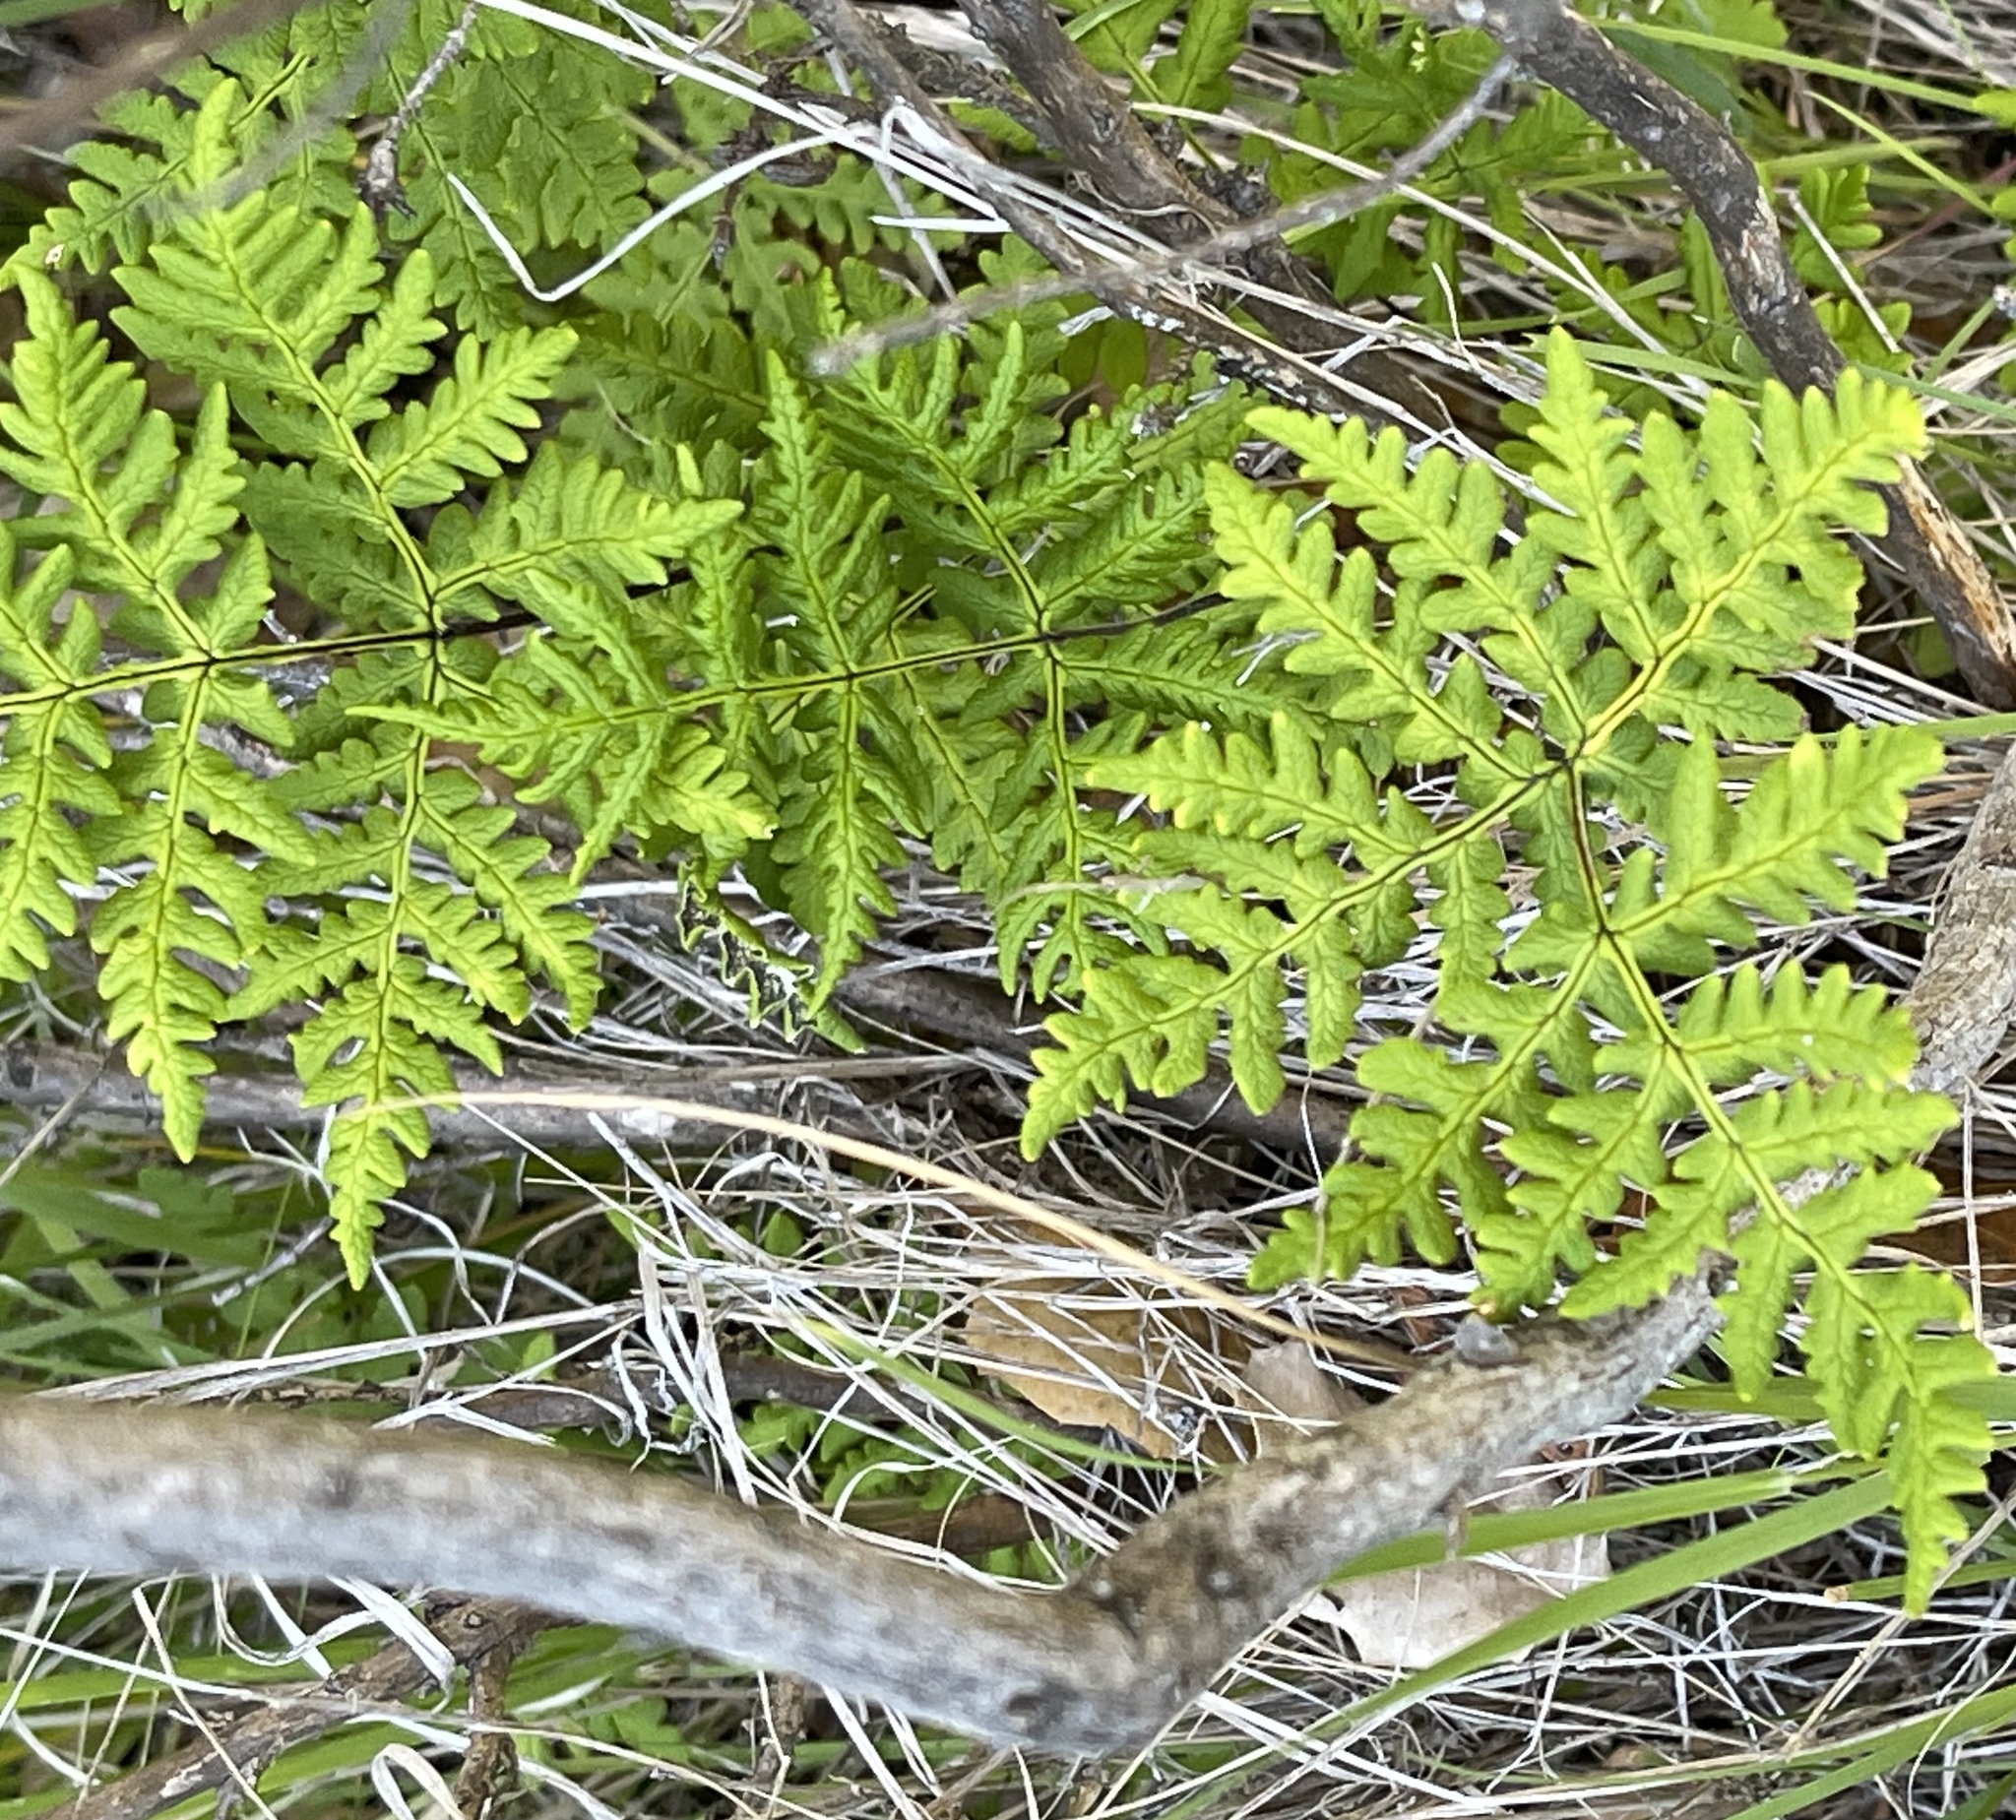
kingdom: Plantae
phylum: Tracheophyta
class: Polypodiopsida
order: Polypodiales
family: Pteridaceae
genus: Pentagramma
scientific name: Pentagramma triangularis
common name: Gold fern
